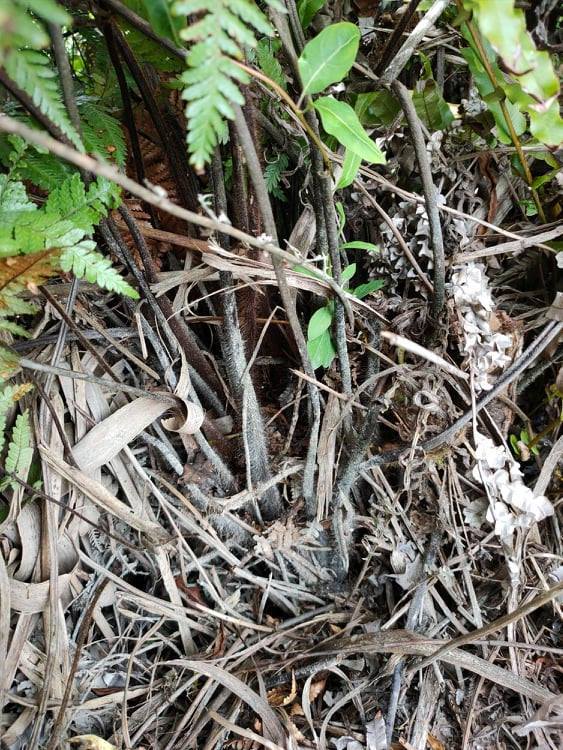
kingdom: Plantae
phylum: Tracheophyta
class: Polypodiopsida
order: Cyatheales
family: Dicksoniaceae
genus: Dicksonia
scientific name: Dicksonia squarrosa
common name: Hard treefern
